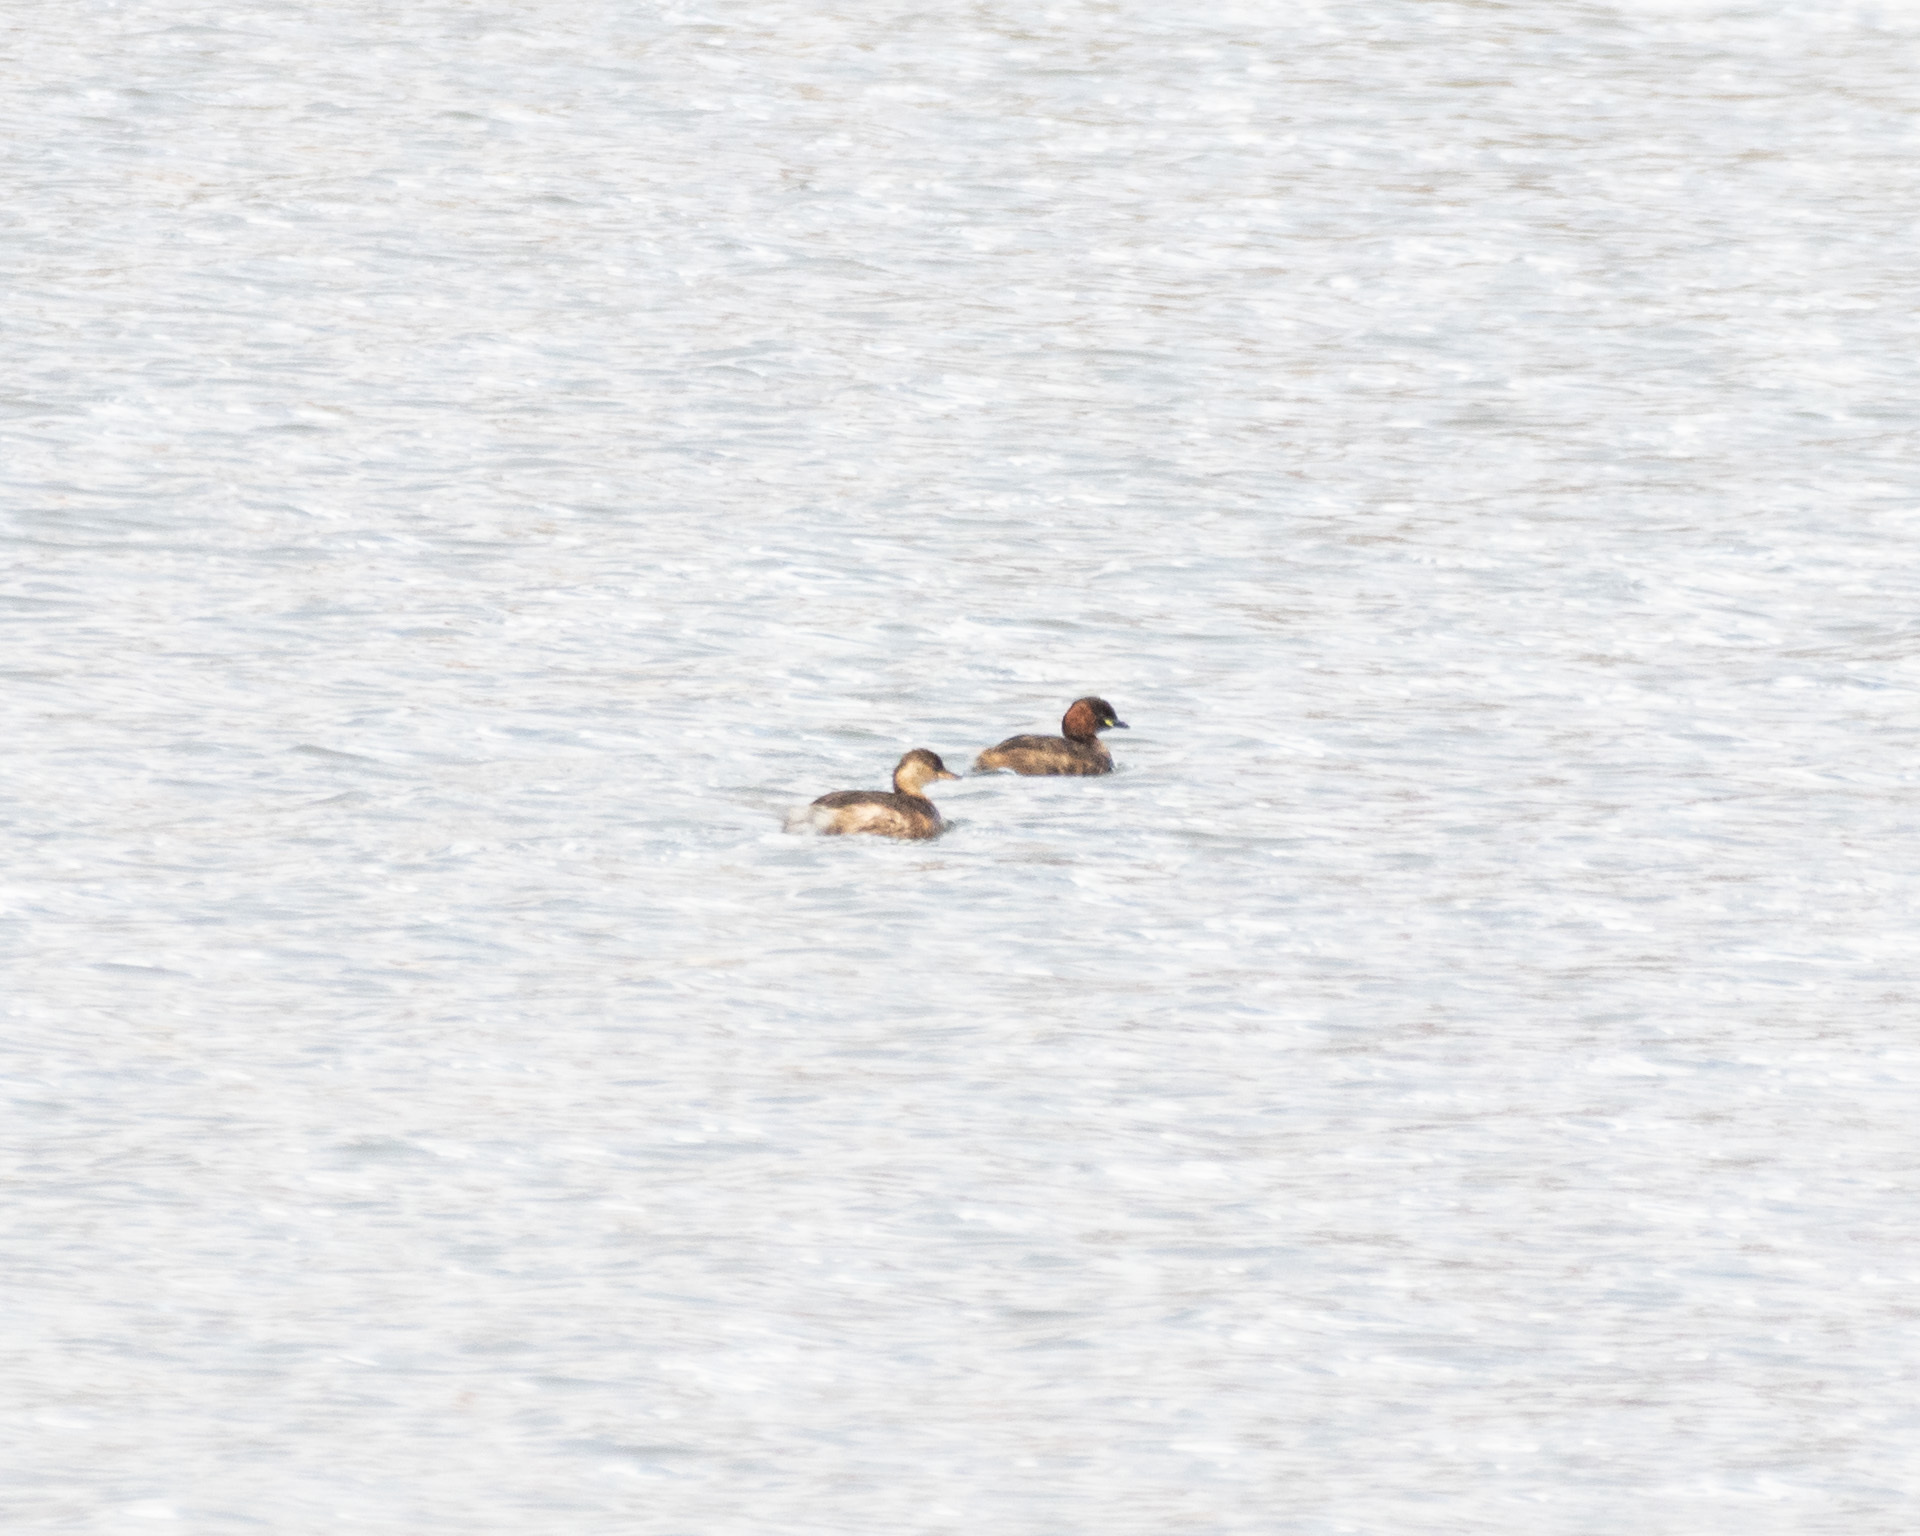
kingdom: Animalia
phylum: Chordata
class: Aves
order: Podicipediformes
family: Podicipedidae
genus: Tachybaptus
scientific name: Tachybaptus ruficollis
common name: Little grebe
